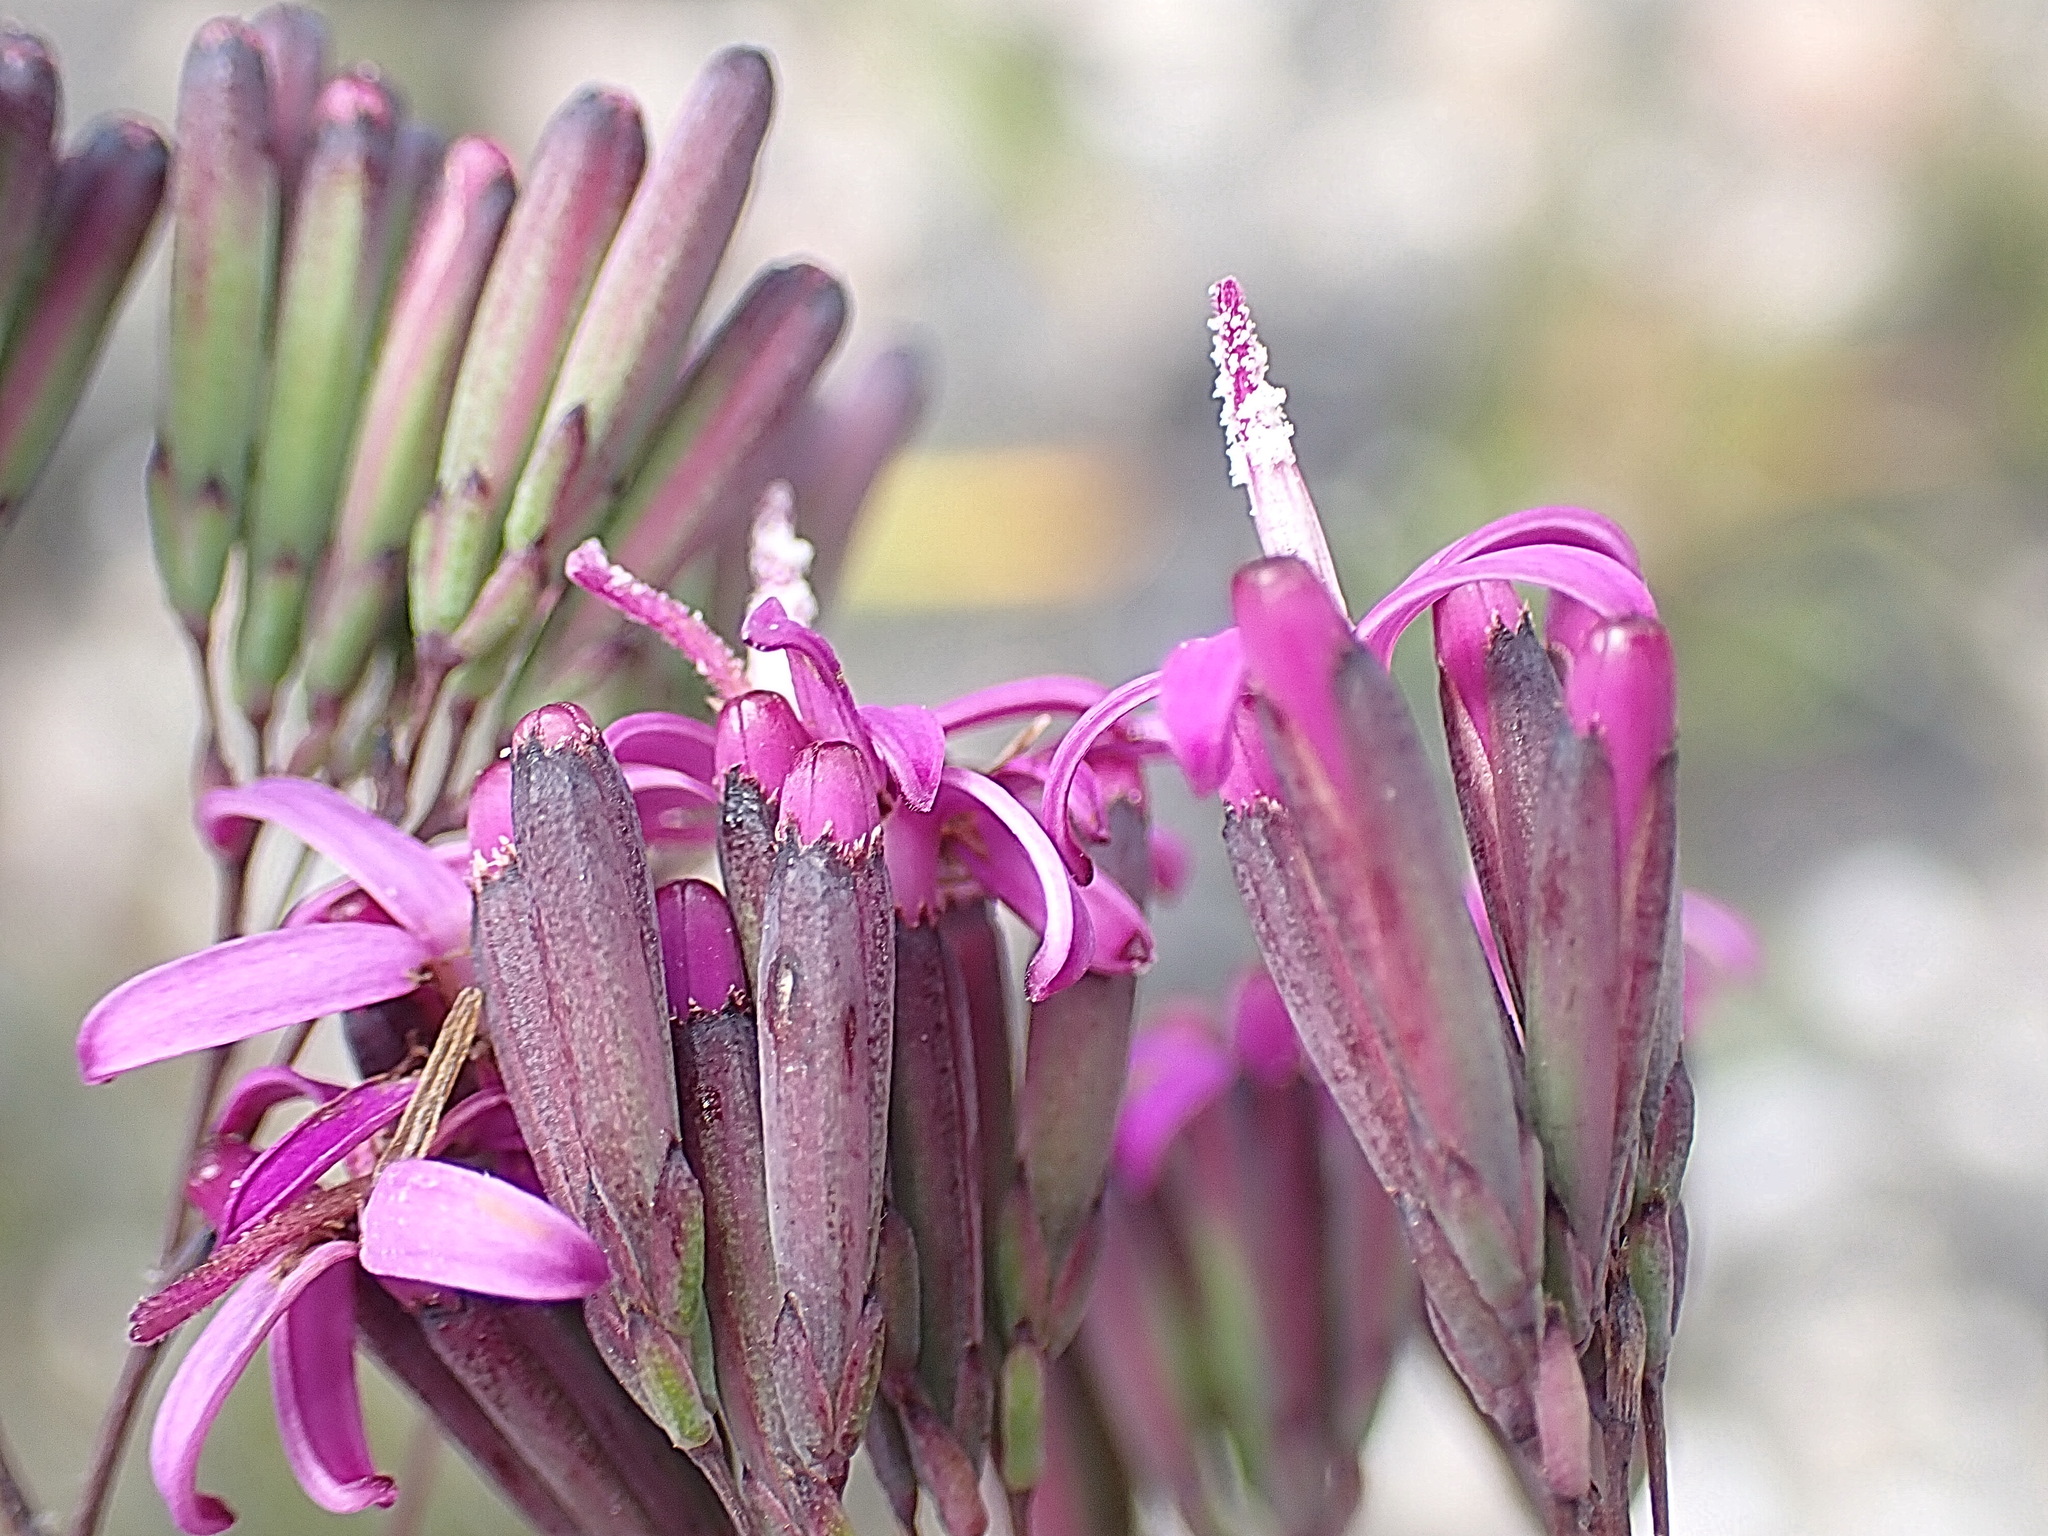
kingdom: Plantae
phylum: Tracheophyta
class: Magnoliopsida
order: Asterales
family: Asteraceae
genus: Corymbium
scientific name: Corymbium glabrum
